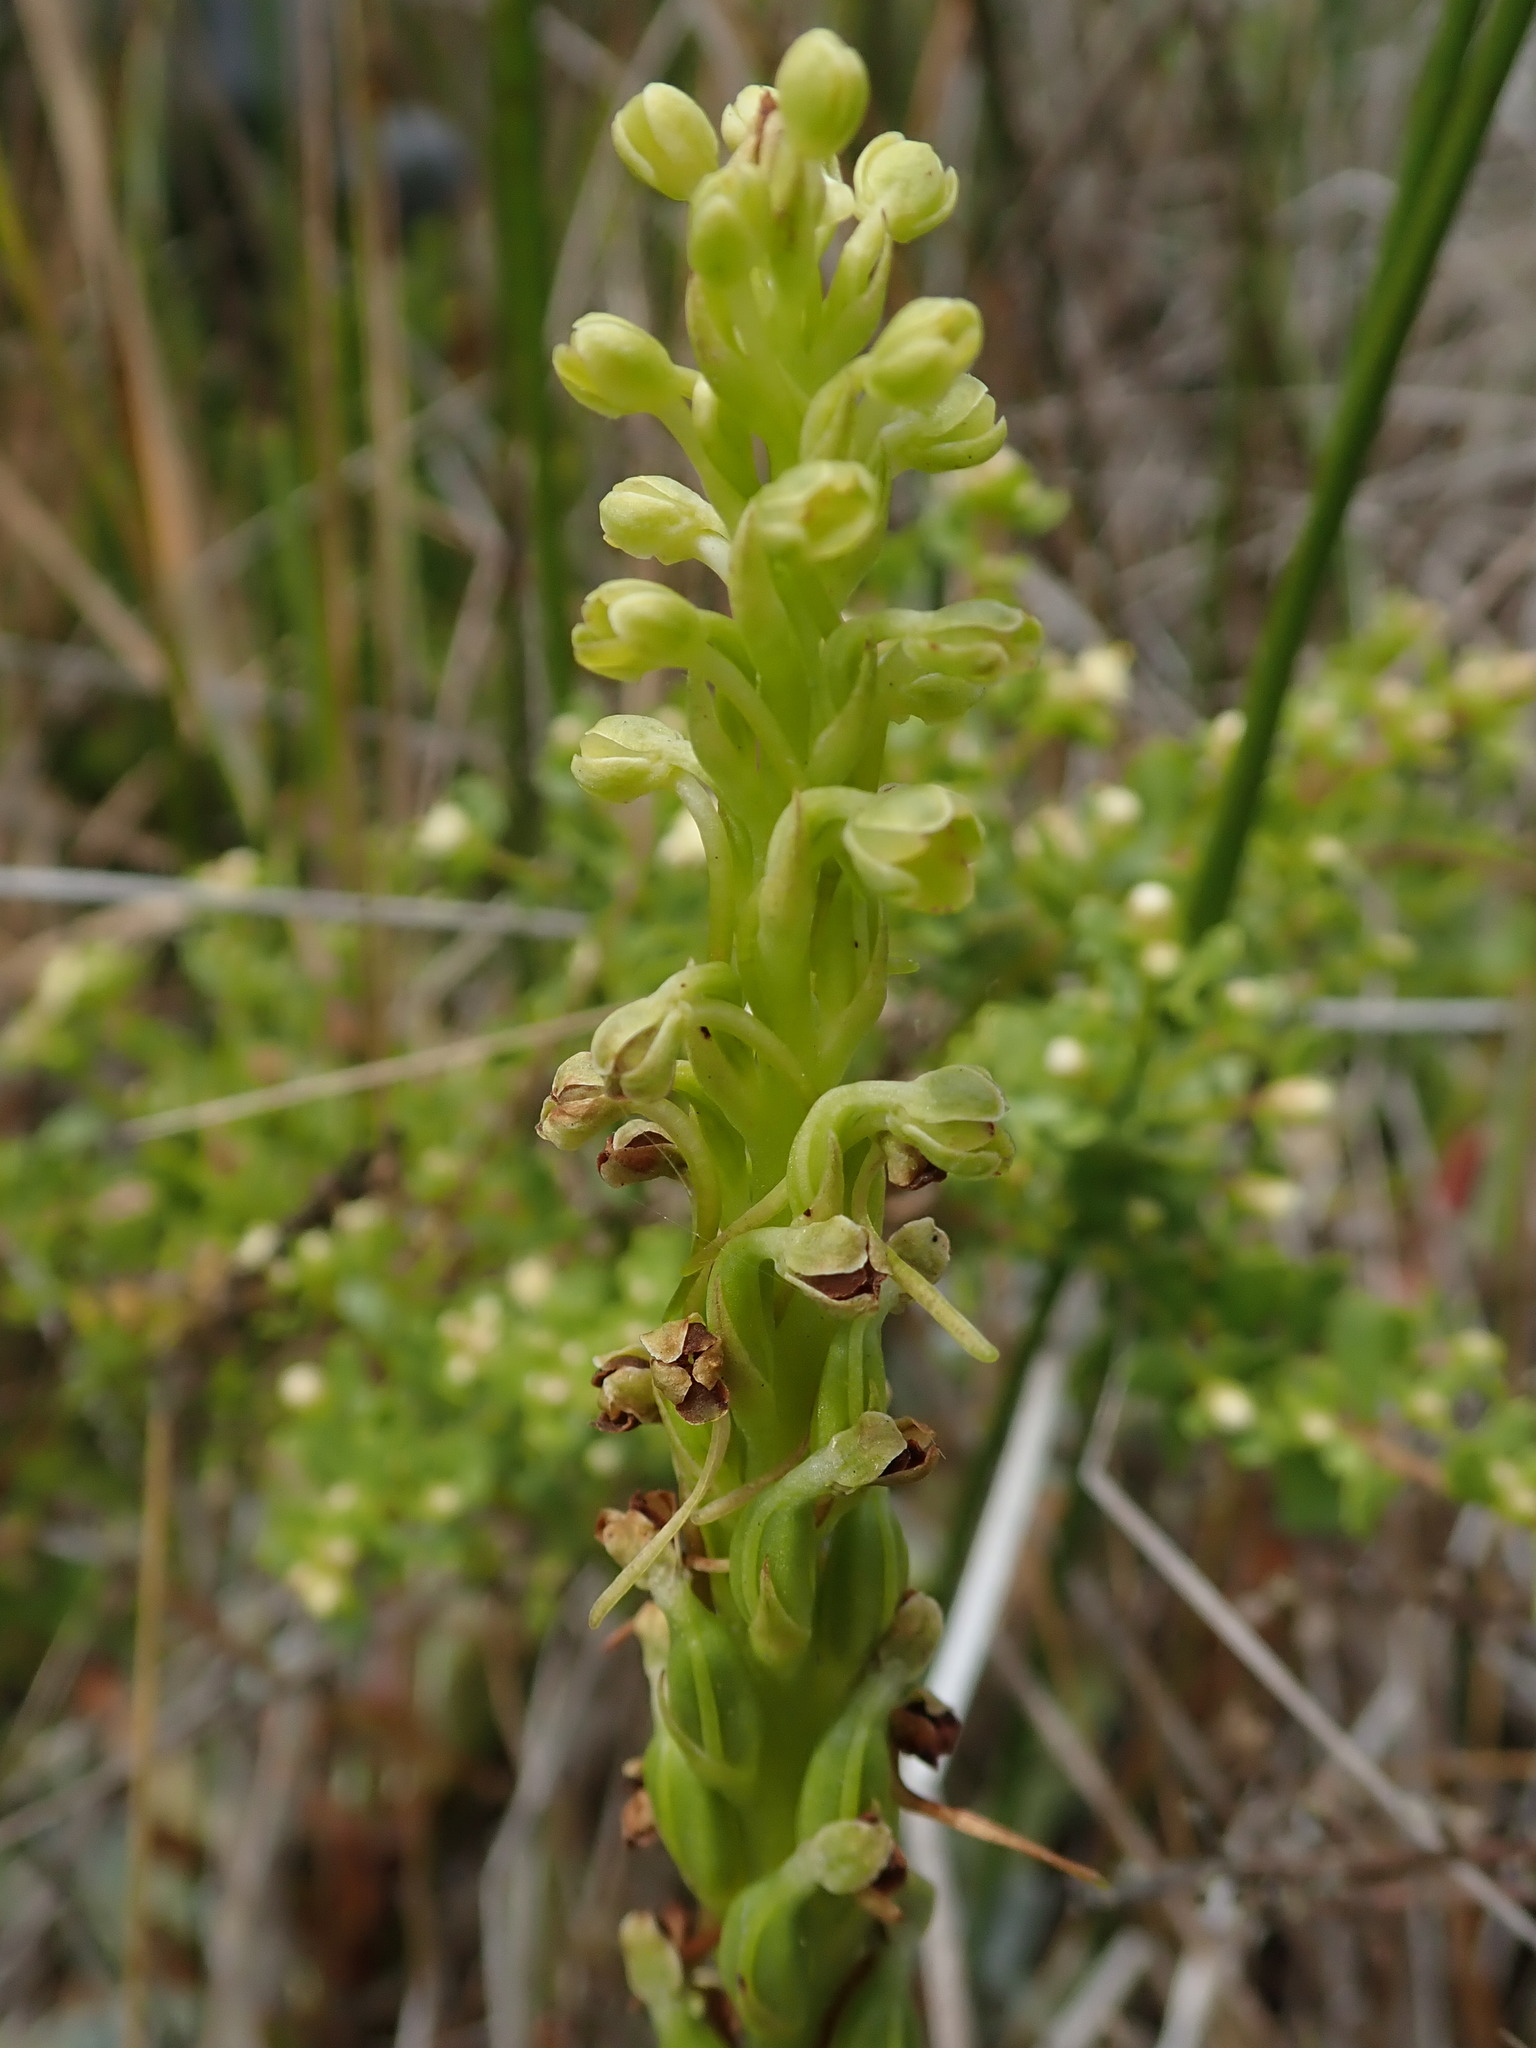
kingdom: Plantae
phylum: Tracheophyta
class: Liliopsida
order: Asparagales
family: Orchidaceae
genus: Platanthera
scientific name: Platanthera michaelii
